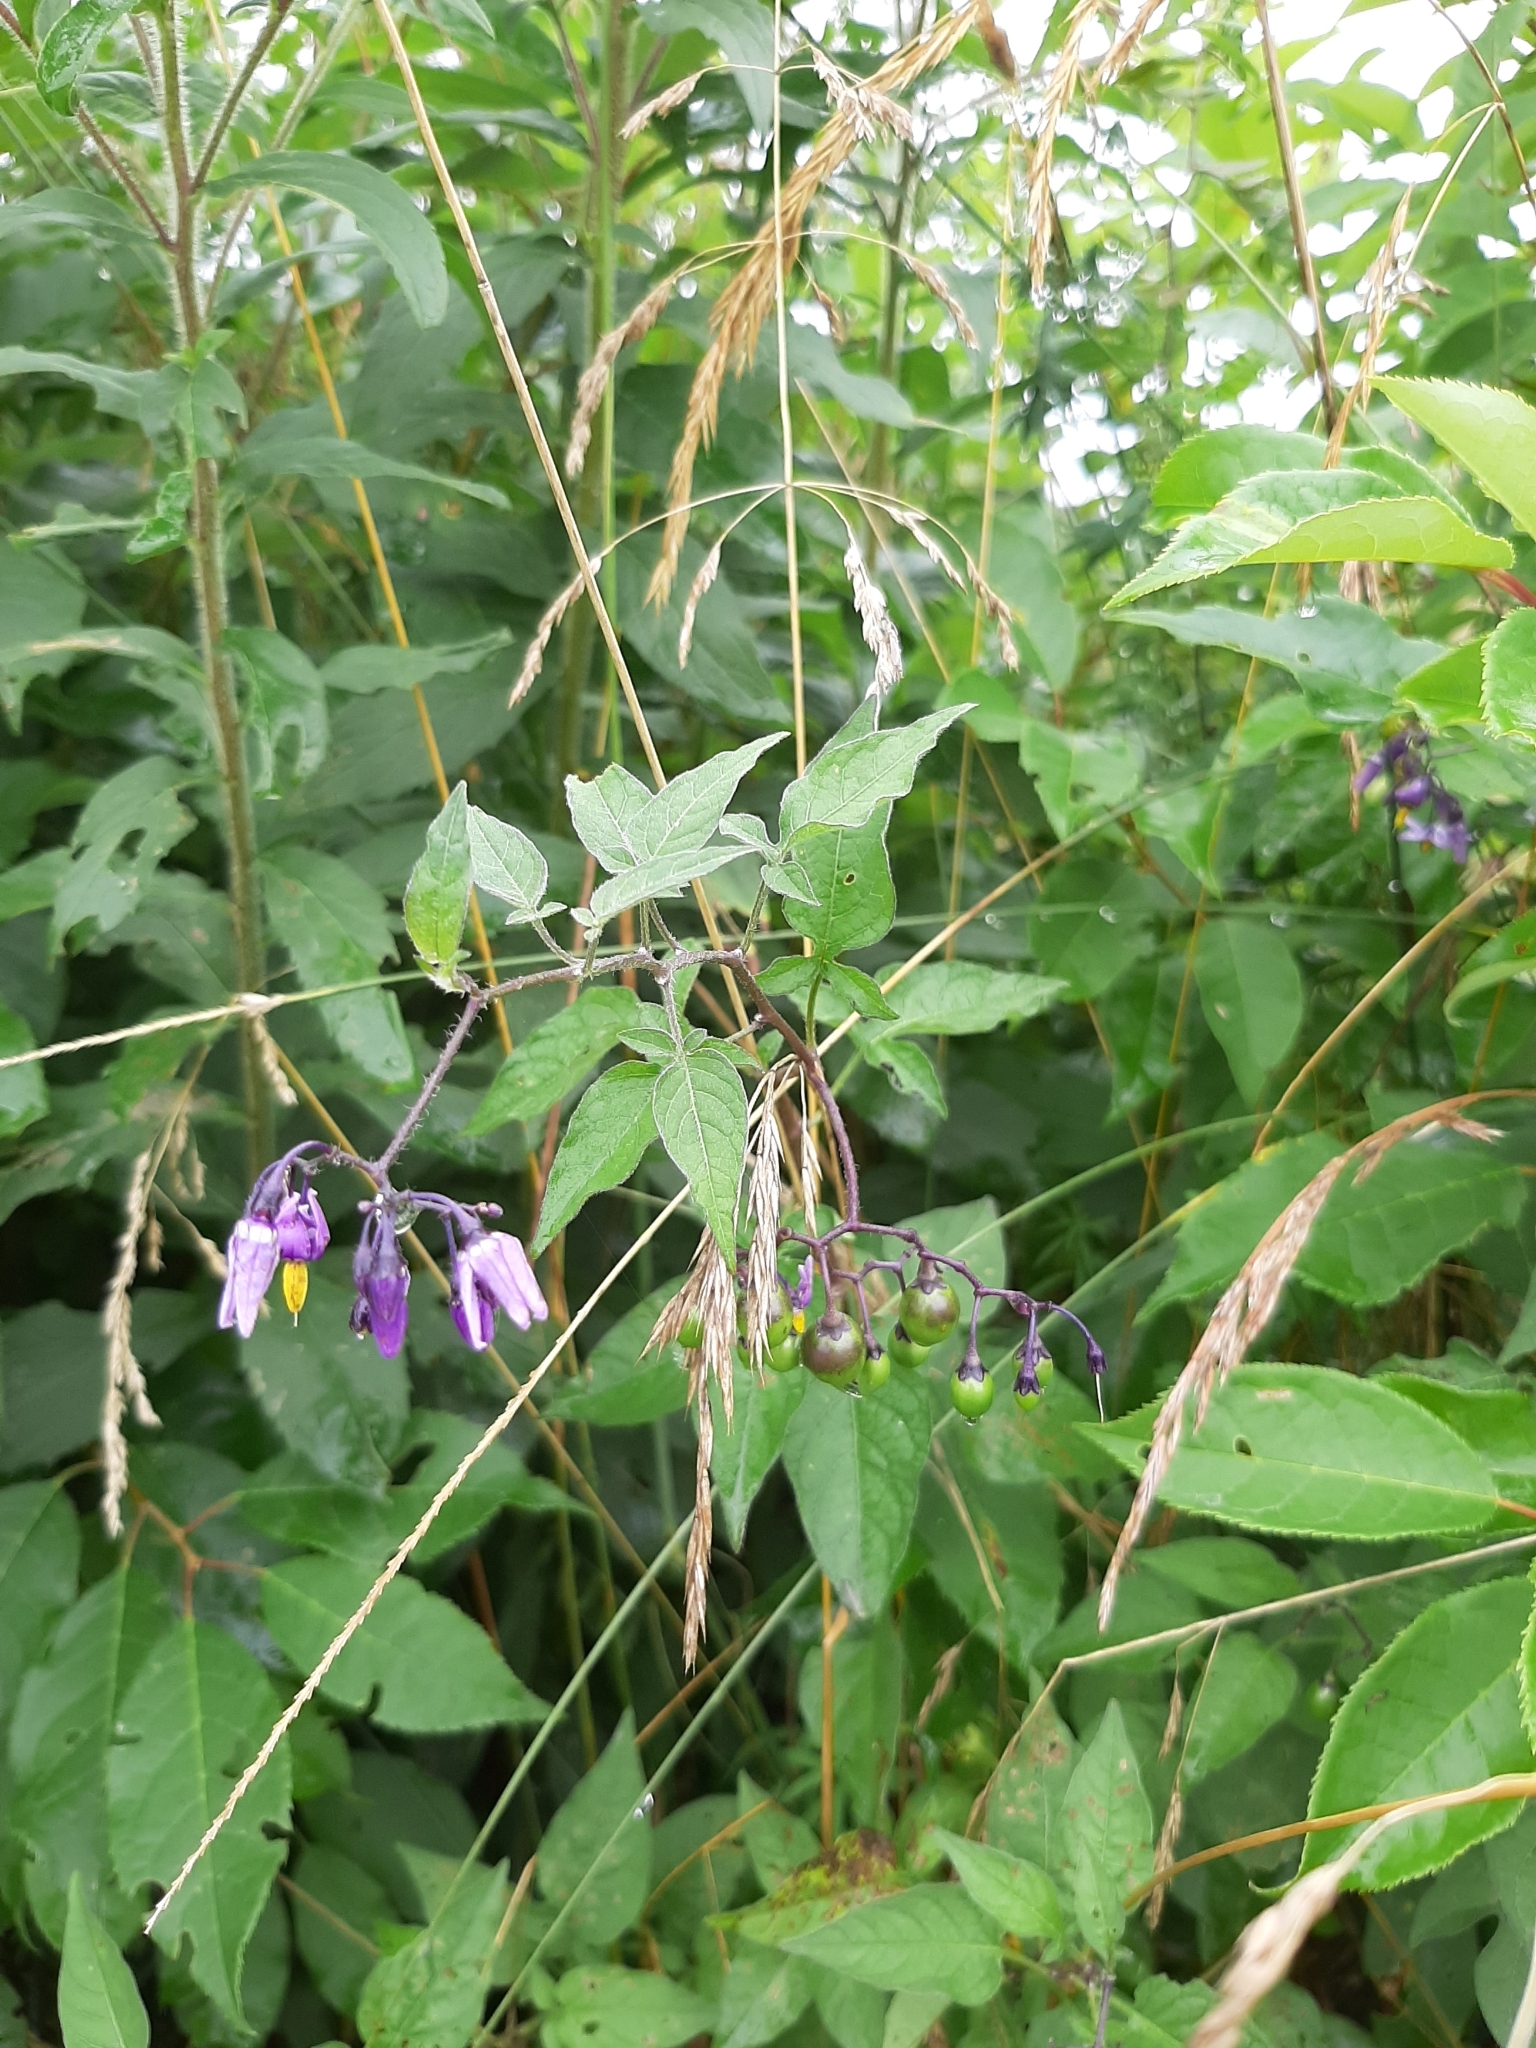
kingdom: Plantae
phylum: Tracheophyta
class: Magnoliopsida
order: Solanales
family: Solanaceae
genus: Solanum
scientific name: Solanum dulcamara
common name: Climbing nightshade
